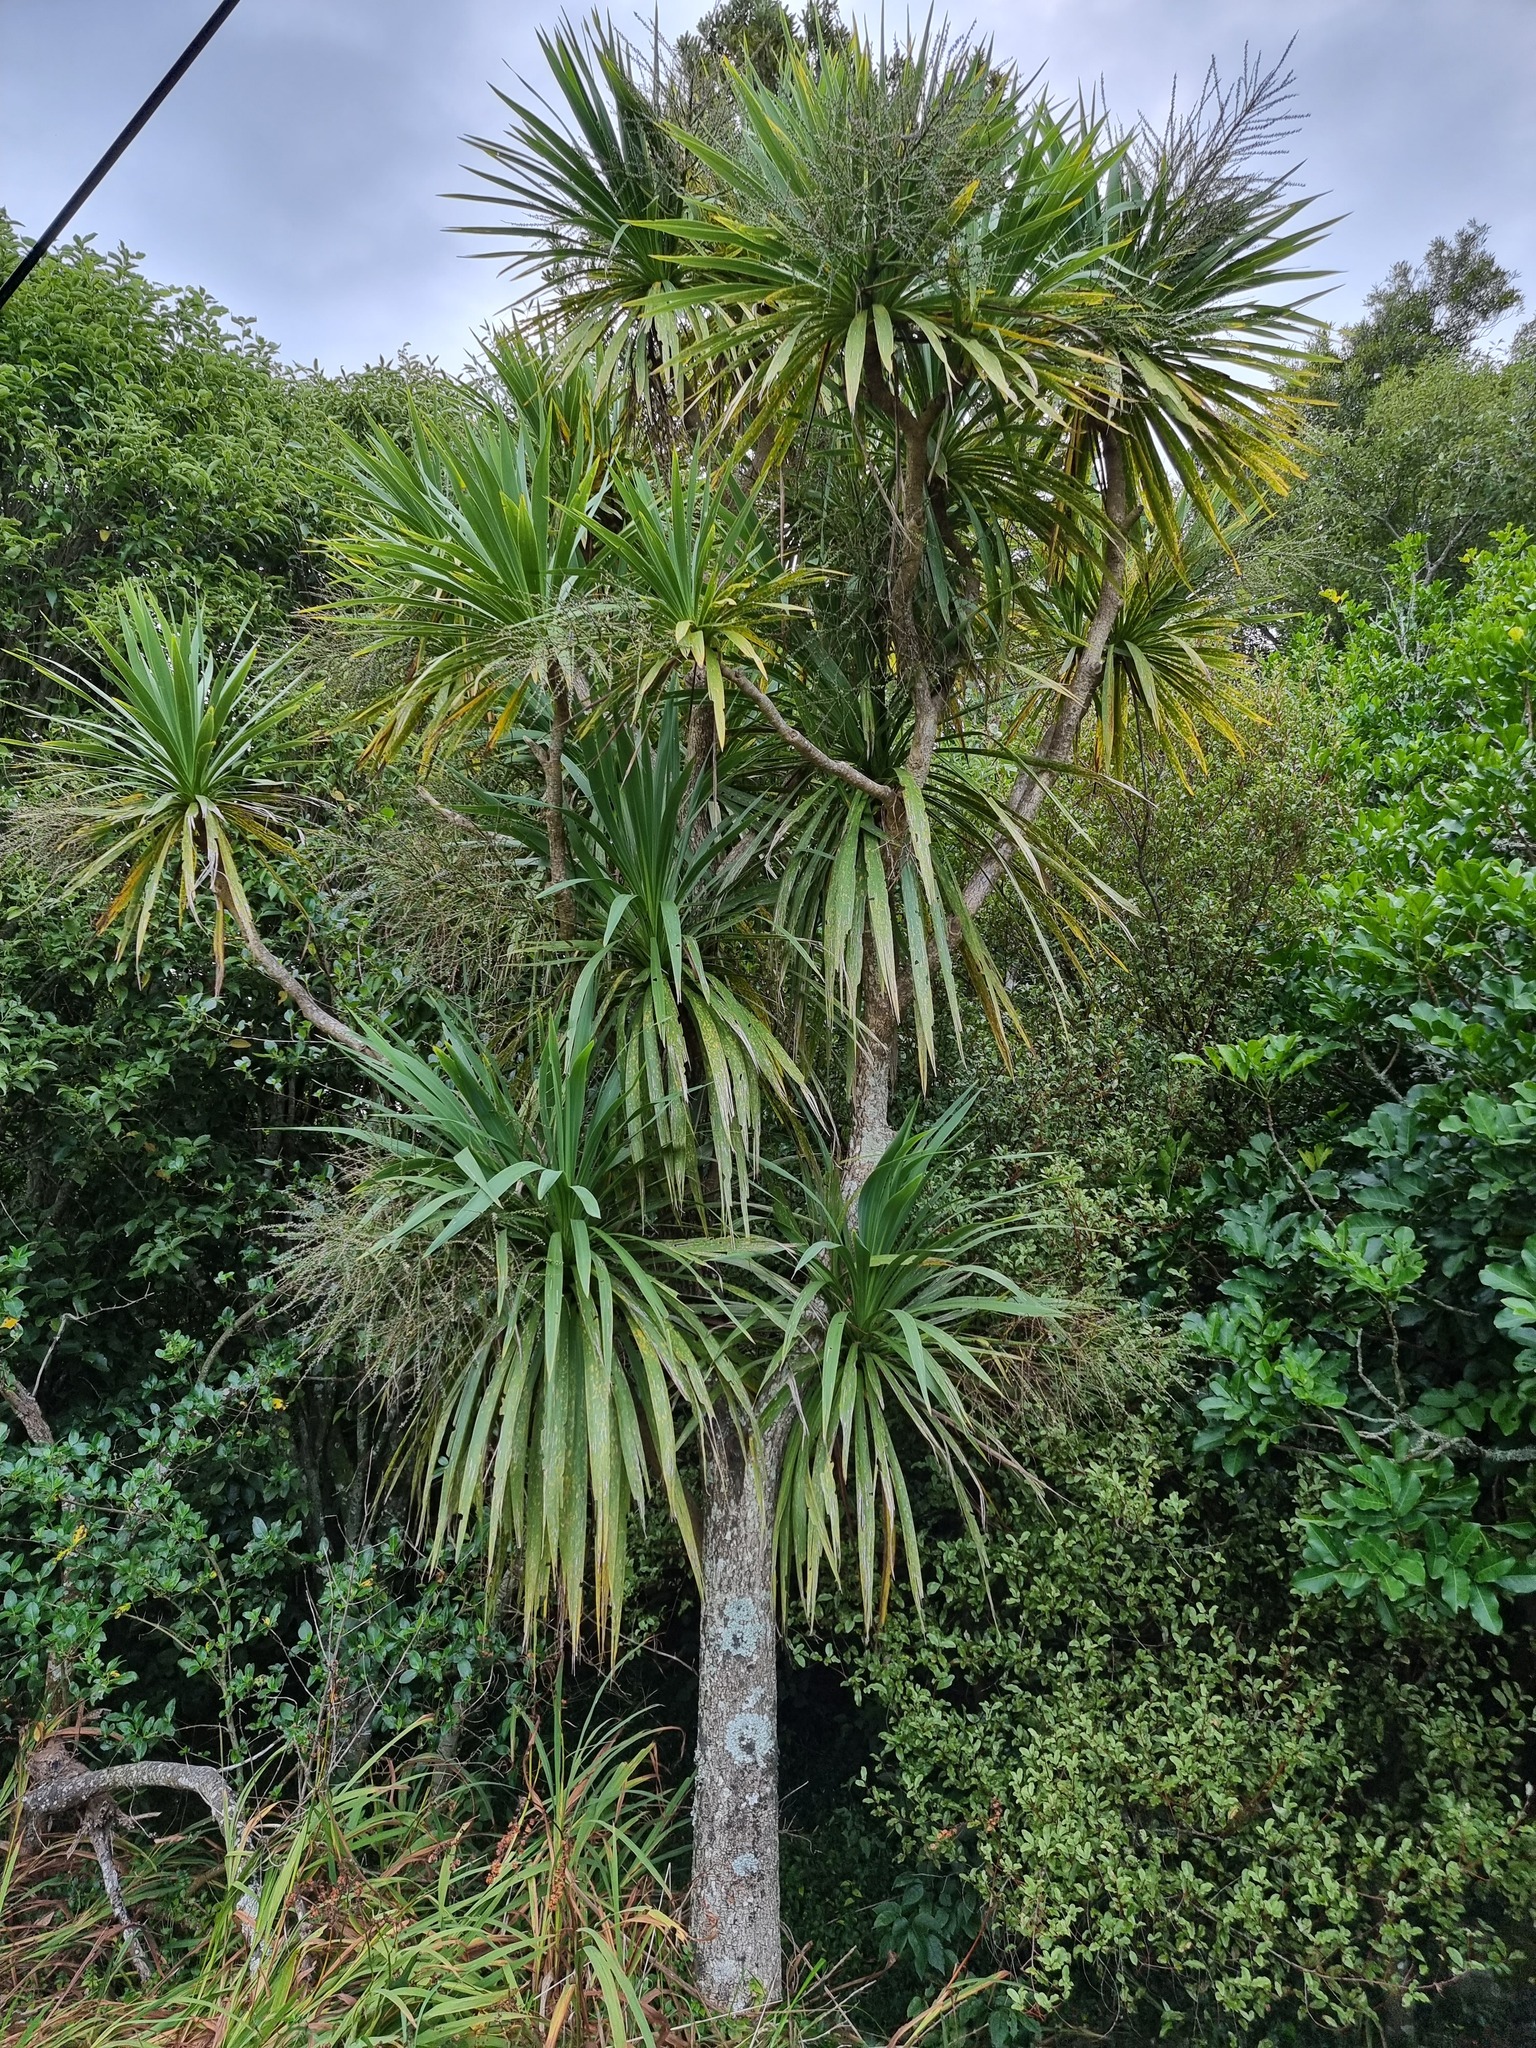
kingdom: Plantae
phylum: Tracheophyta
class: Liliopsida
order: Asparagales
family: Asparagaceae
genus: Cordyline
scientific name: Cordyline australis
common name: Cabbage-palm
